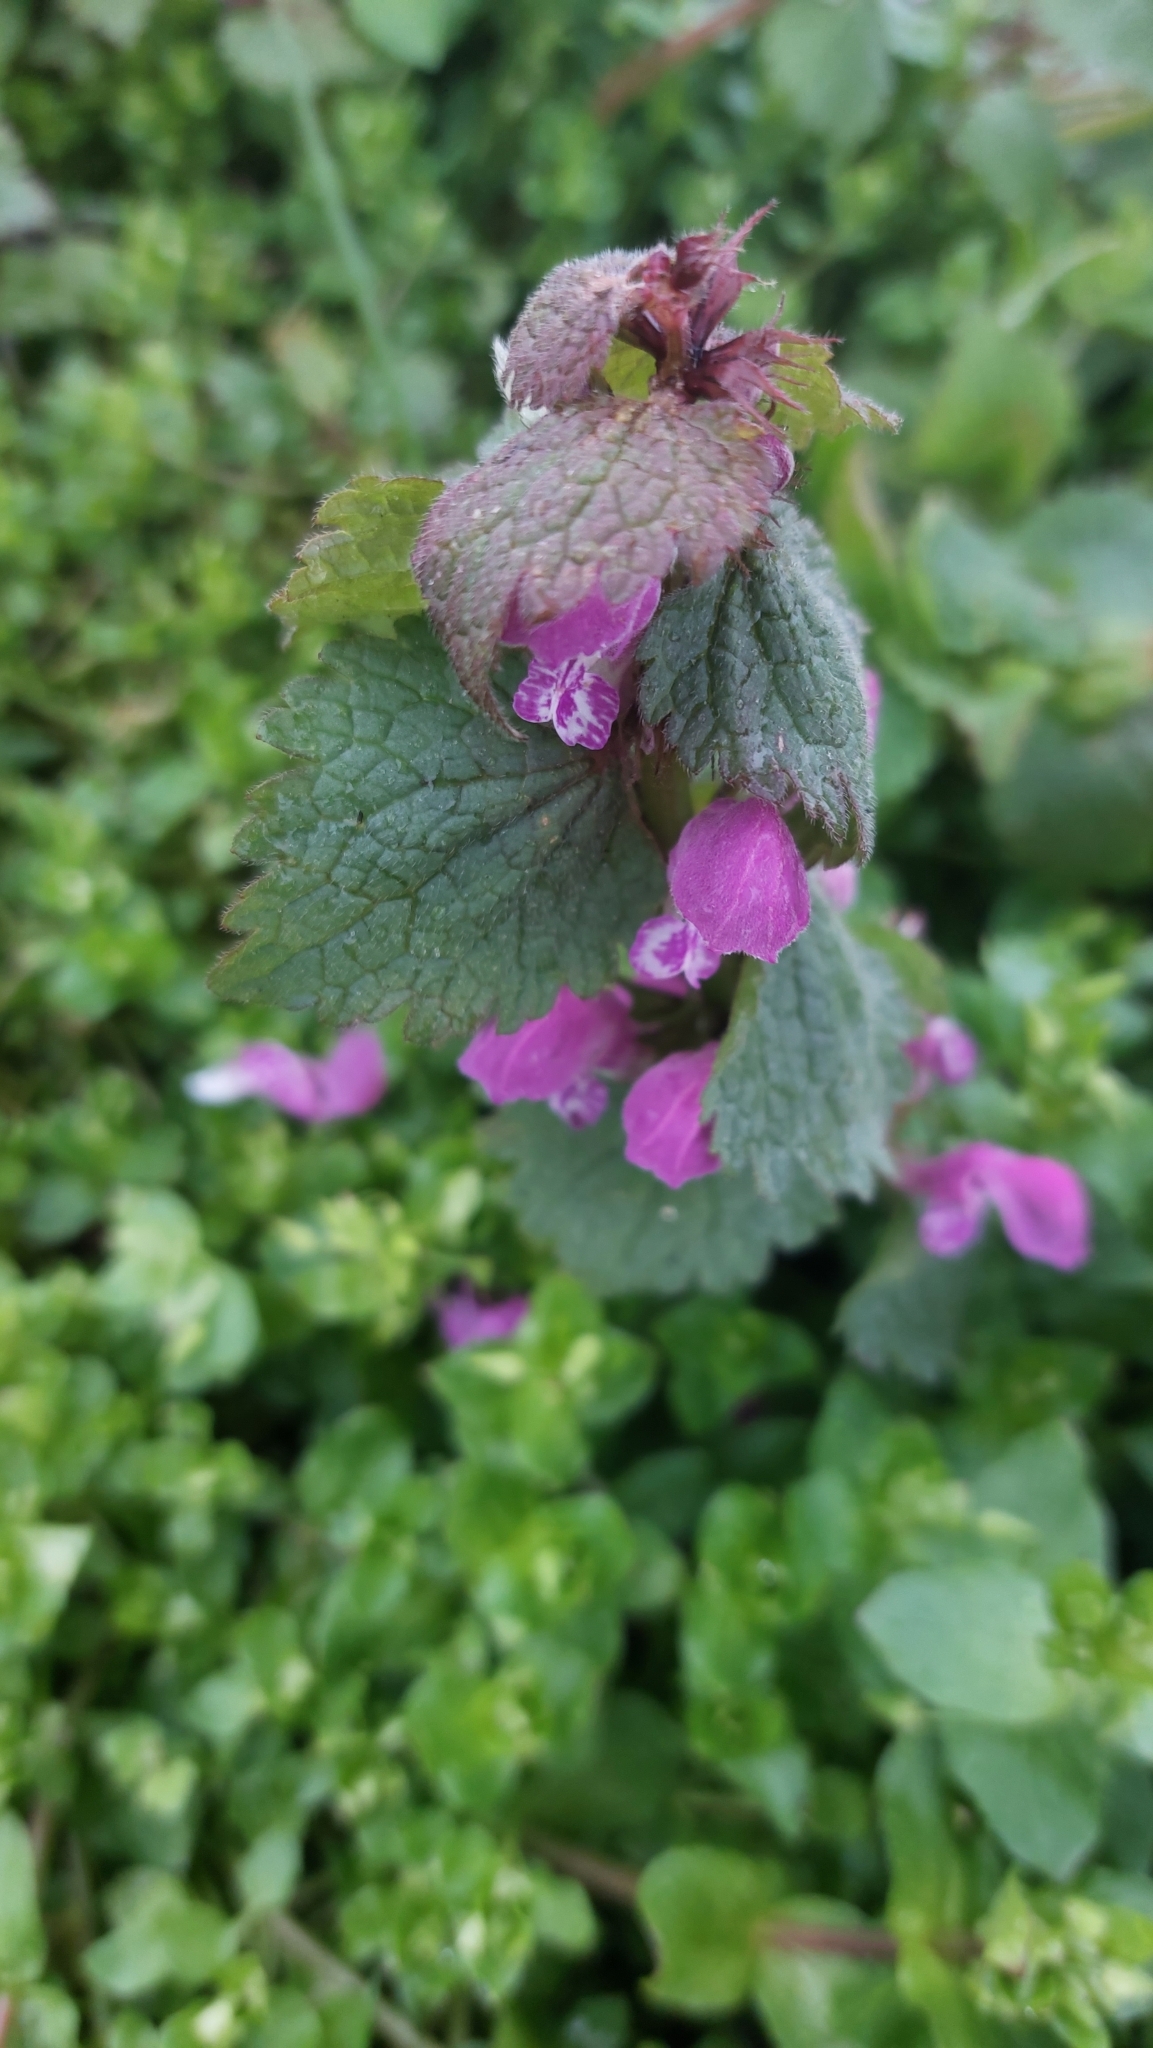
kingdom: Plantae
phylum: Tracheophyta
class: Magnoliopsida
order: Lamiales
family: Lamiaceae
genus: Lamium
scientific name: Lamium maculatum
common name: Spotted dead-nettle
